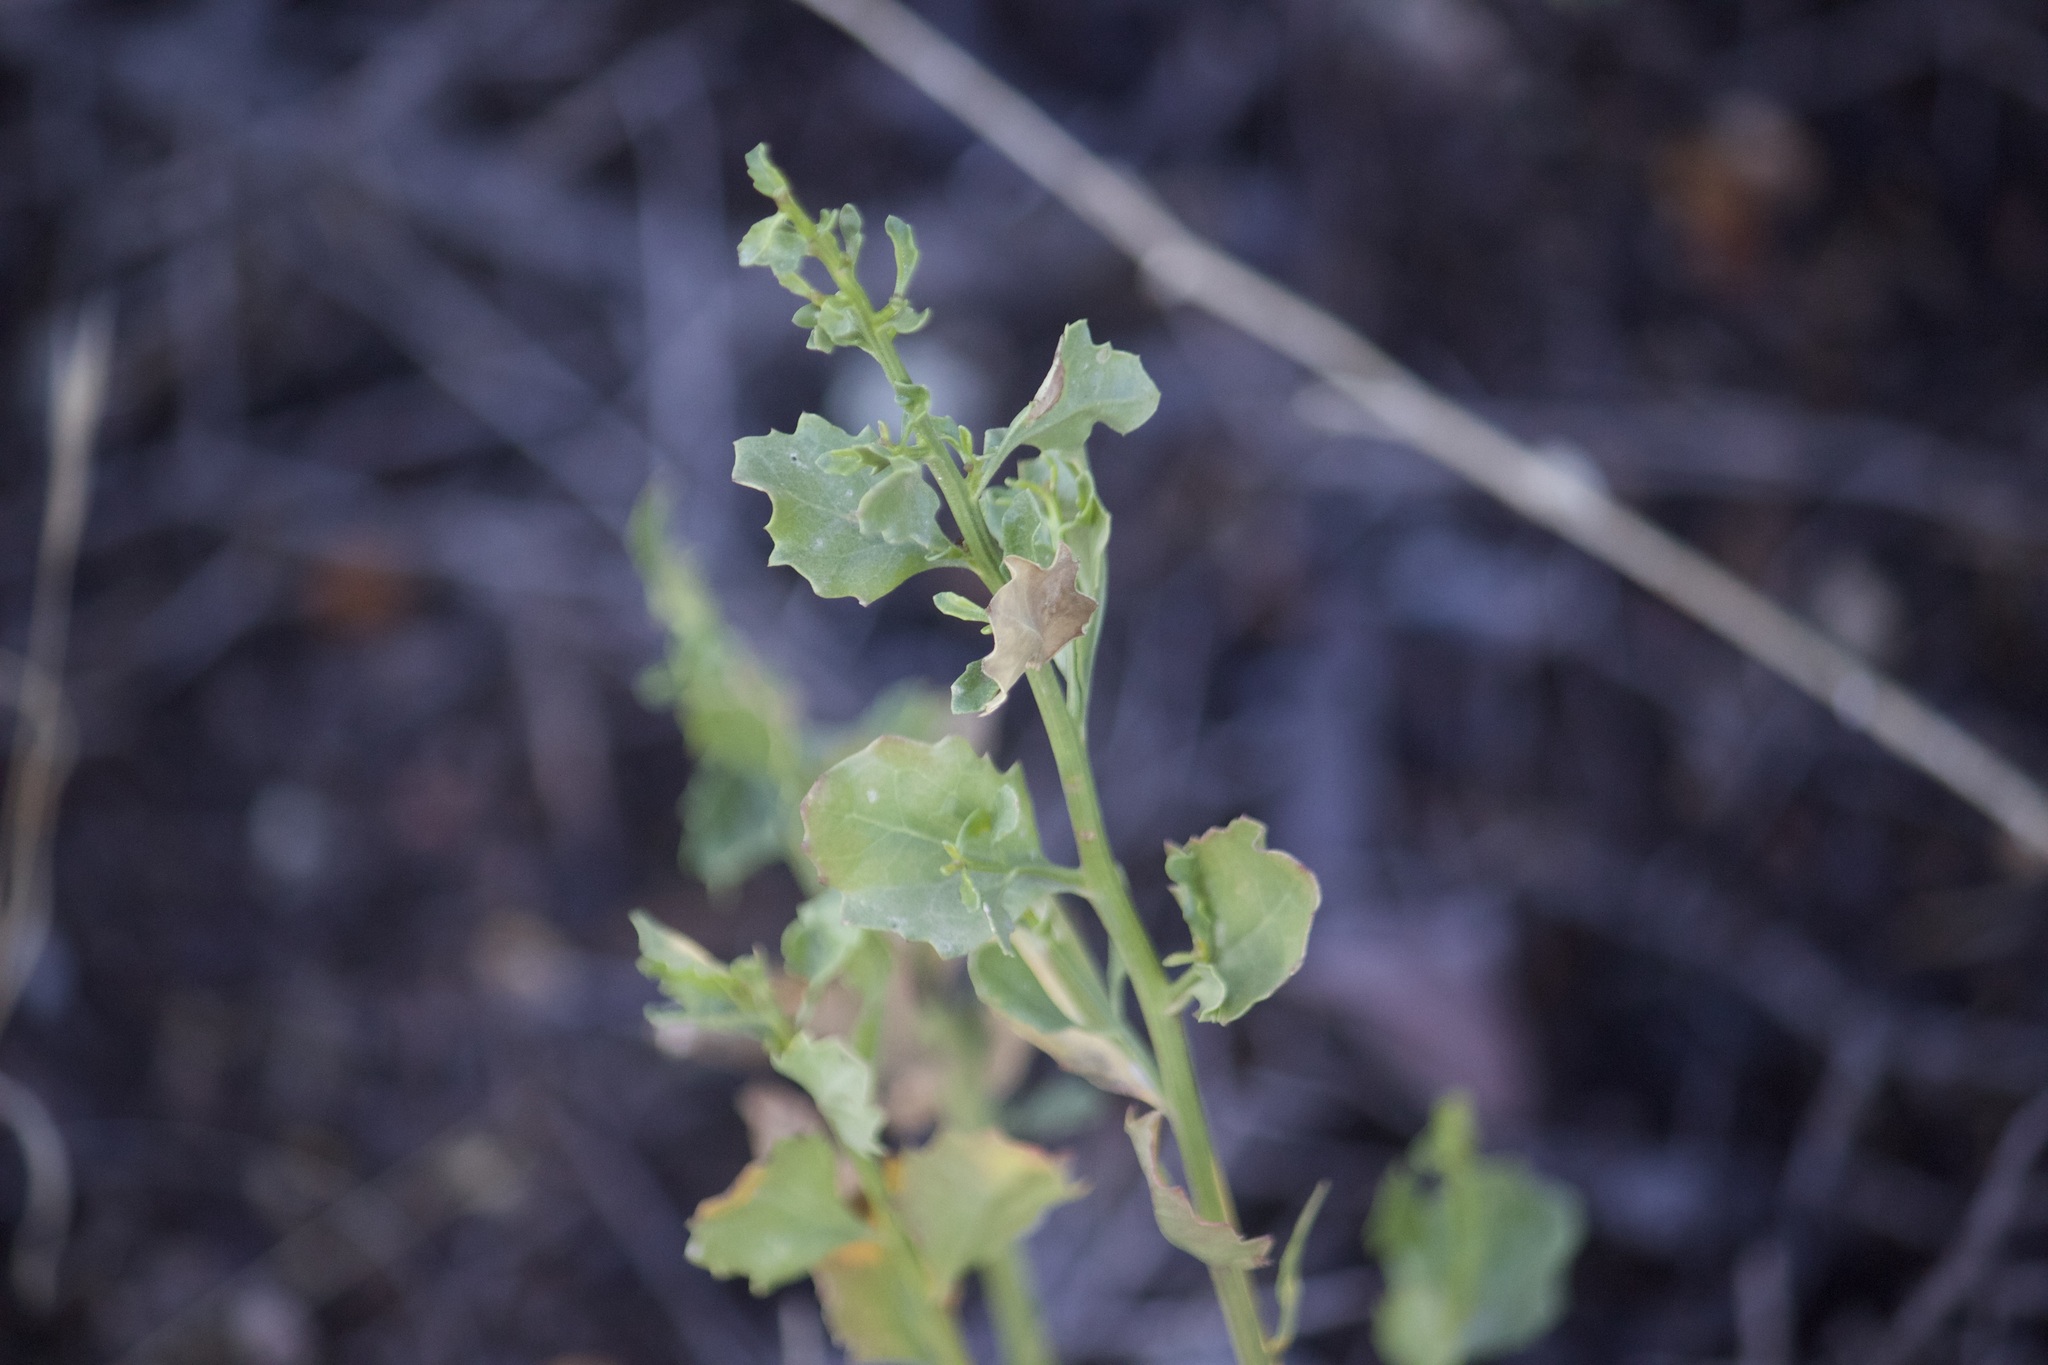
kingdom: Plantae
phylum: Tracheophyta
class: Magnoliopsida
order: Asterales
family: Asteraceae
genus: Baccharis
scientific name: Baccharis pilularis
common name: Coyotebrush
